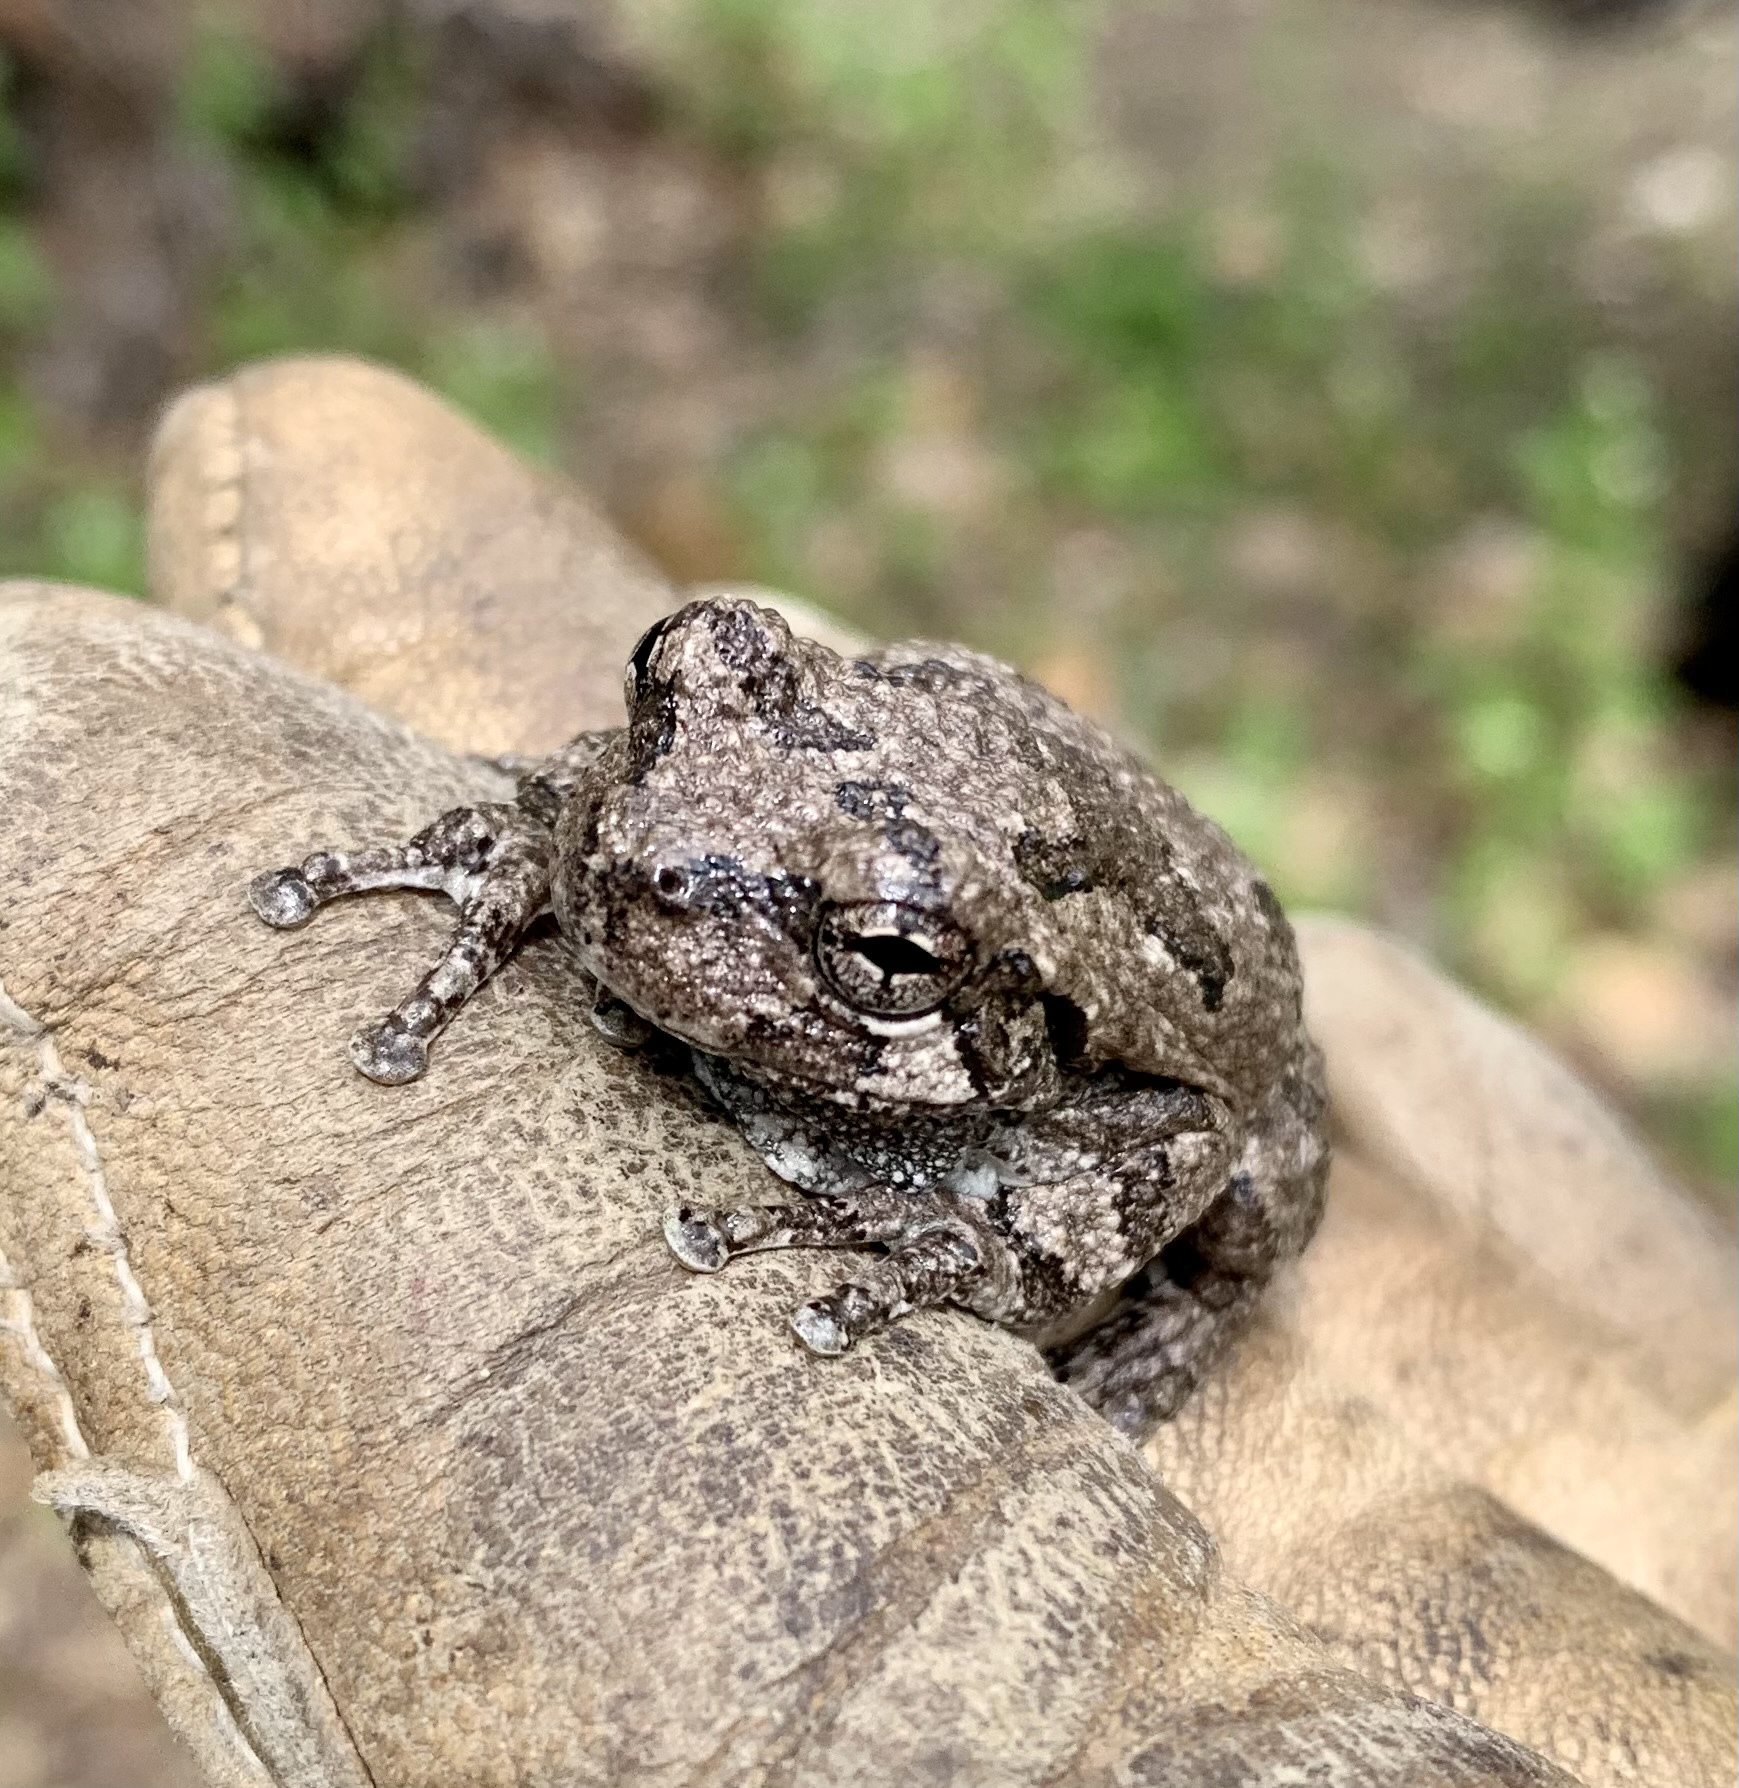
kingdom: Animalia
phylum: Chordata
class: Amphibia
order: Anura
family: Hylidae
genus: Dryophytes
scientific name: Dryophytes versicolor
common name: Gray treefrog
